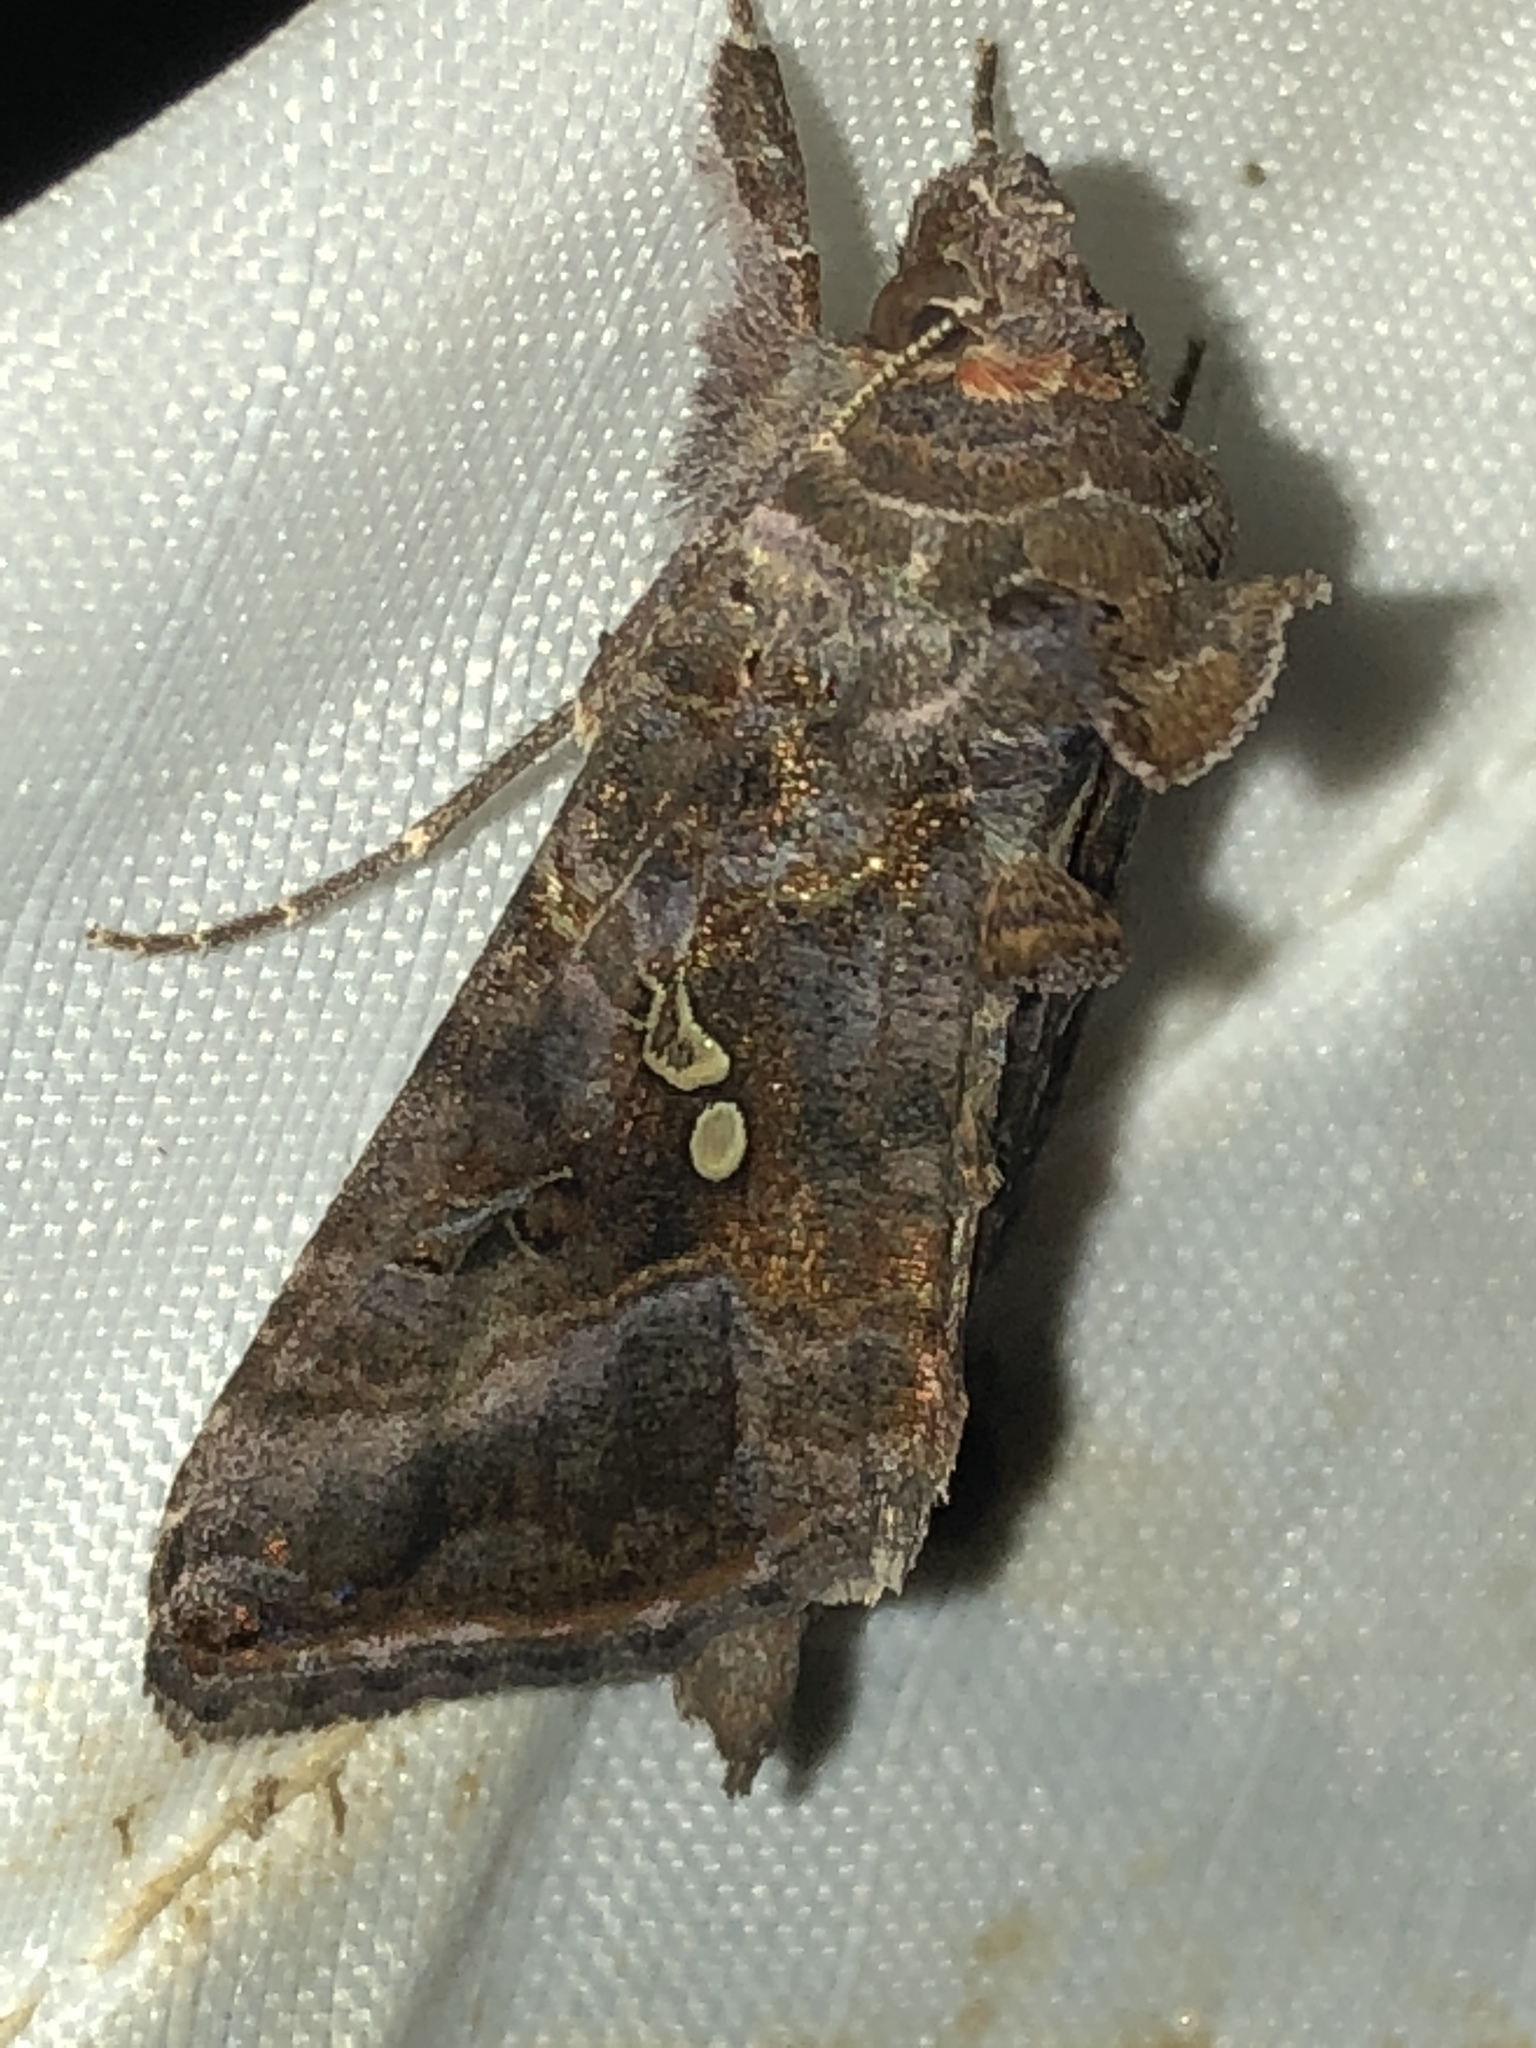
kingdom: Animalia
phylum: Arthropoda
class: Insecta
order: Lepidoptera
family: Noctuidae
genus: Autographa
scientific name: Autographa precationis
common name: Common looper moth
